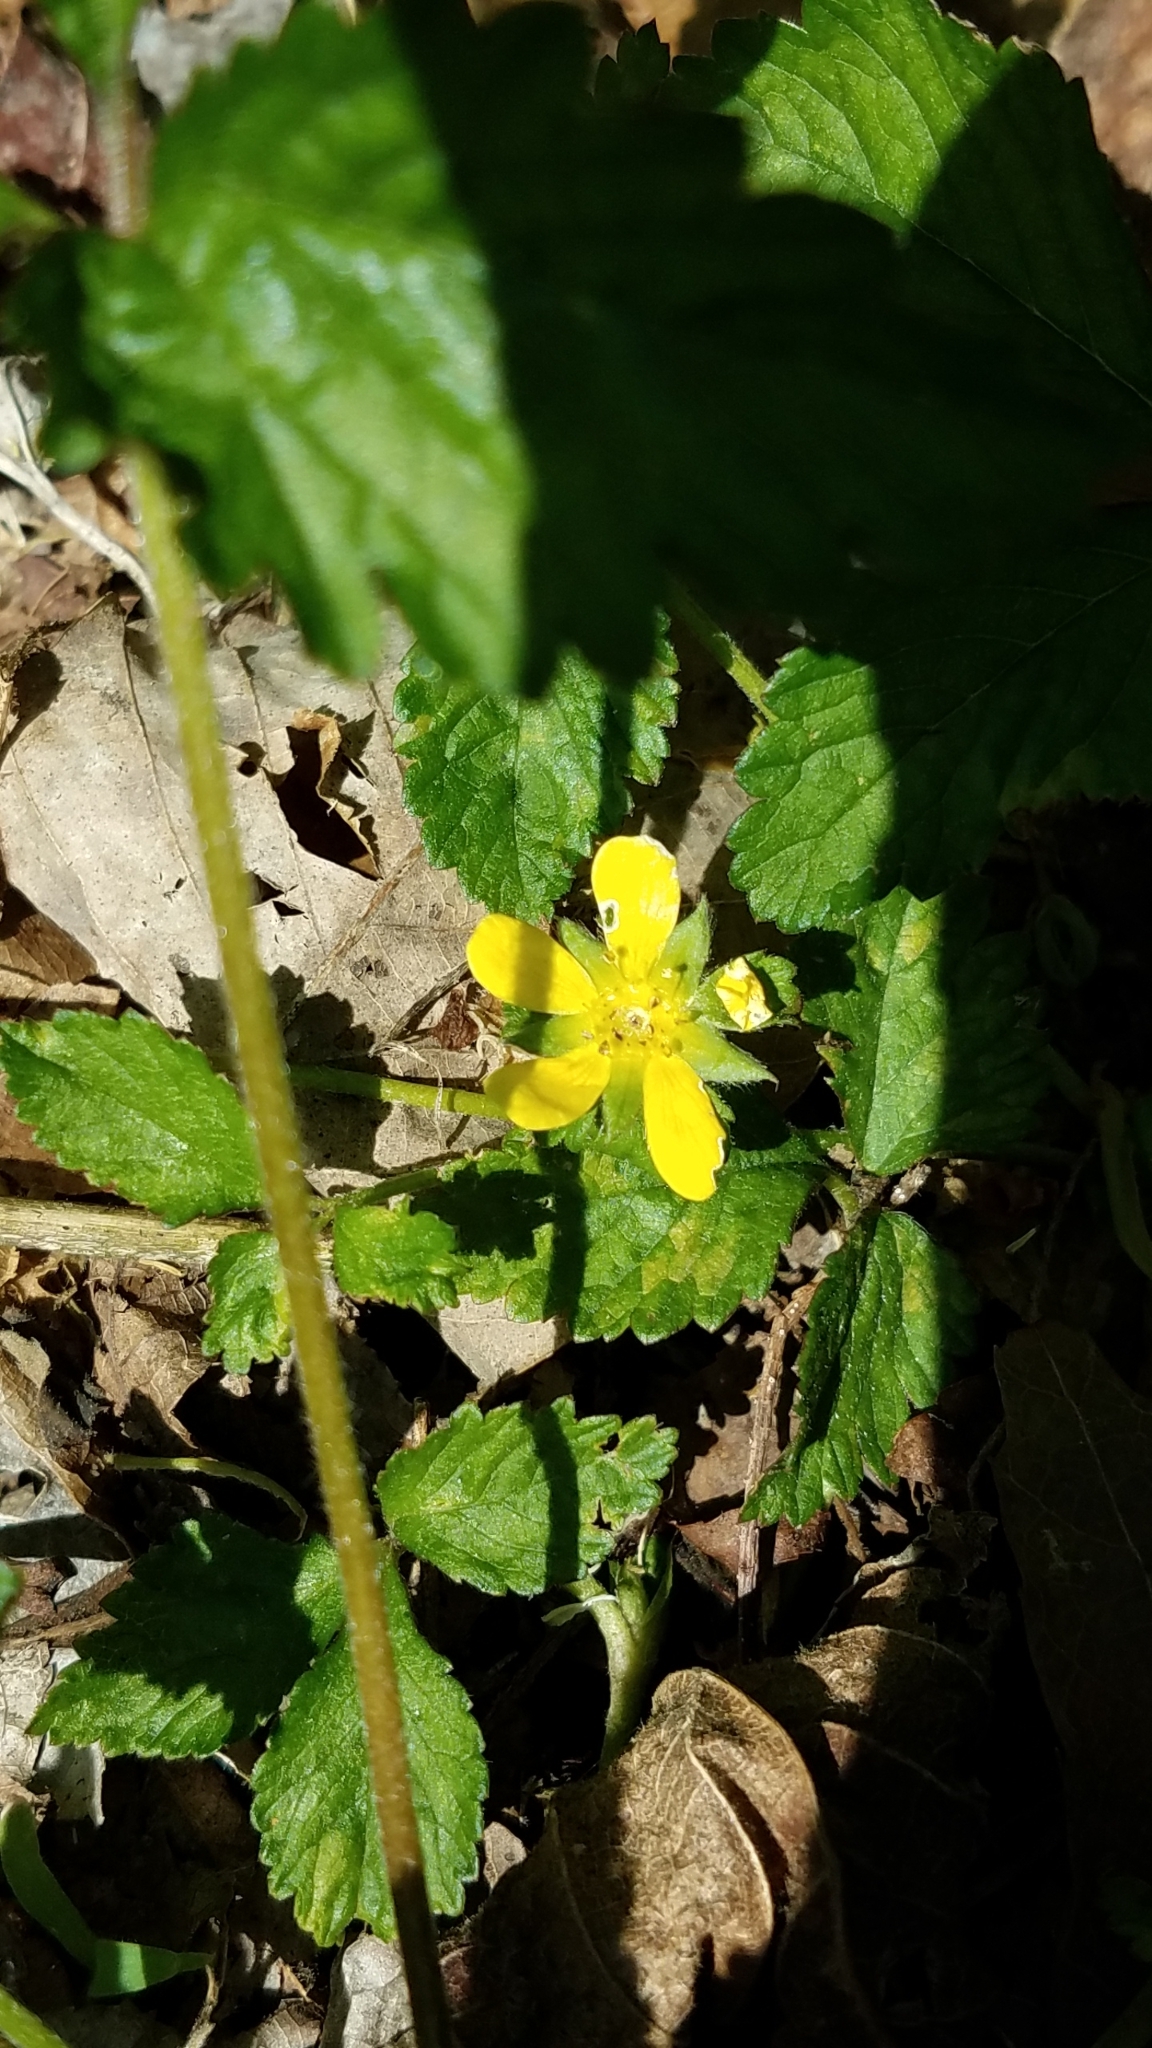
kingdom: Plantae
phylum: Tracheophyta
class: Magnoliopsida
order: Rosales
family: Rosaceae
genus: Potentilla
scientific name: Potentilla indica
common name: Yellow-flowered strawberry
